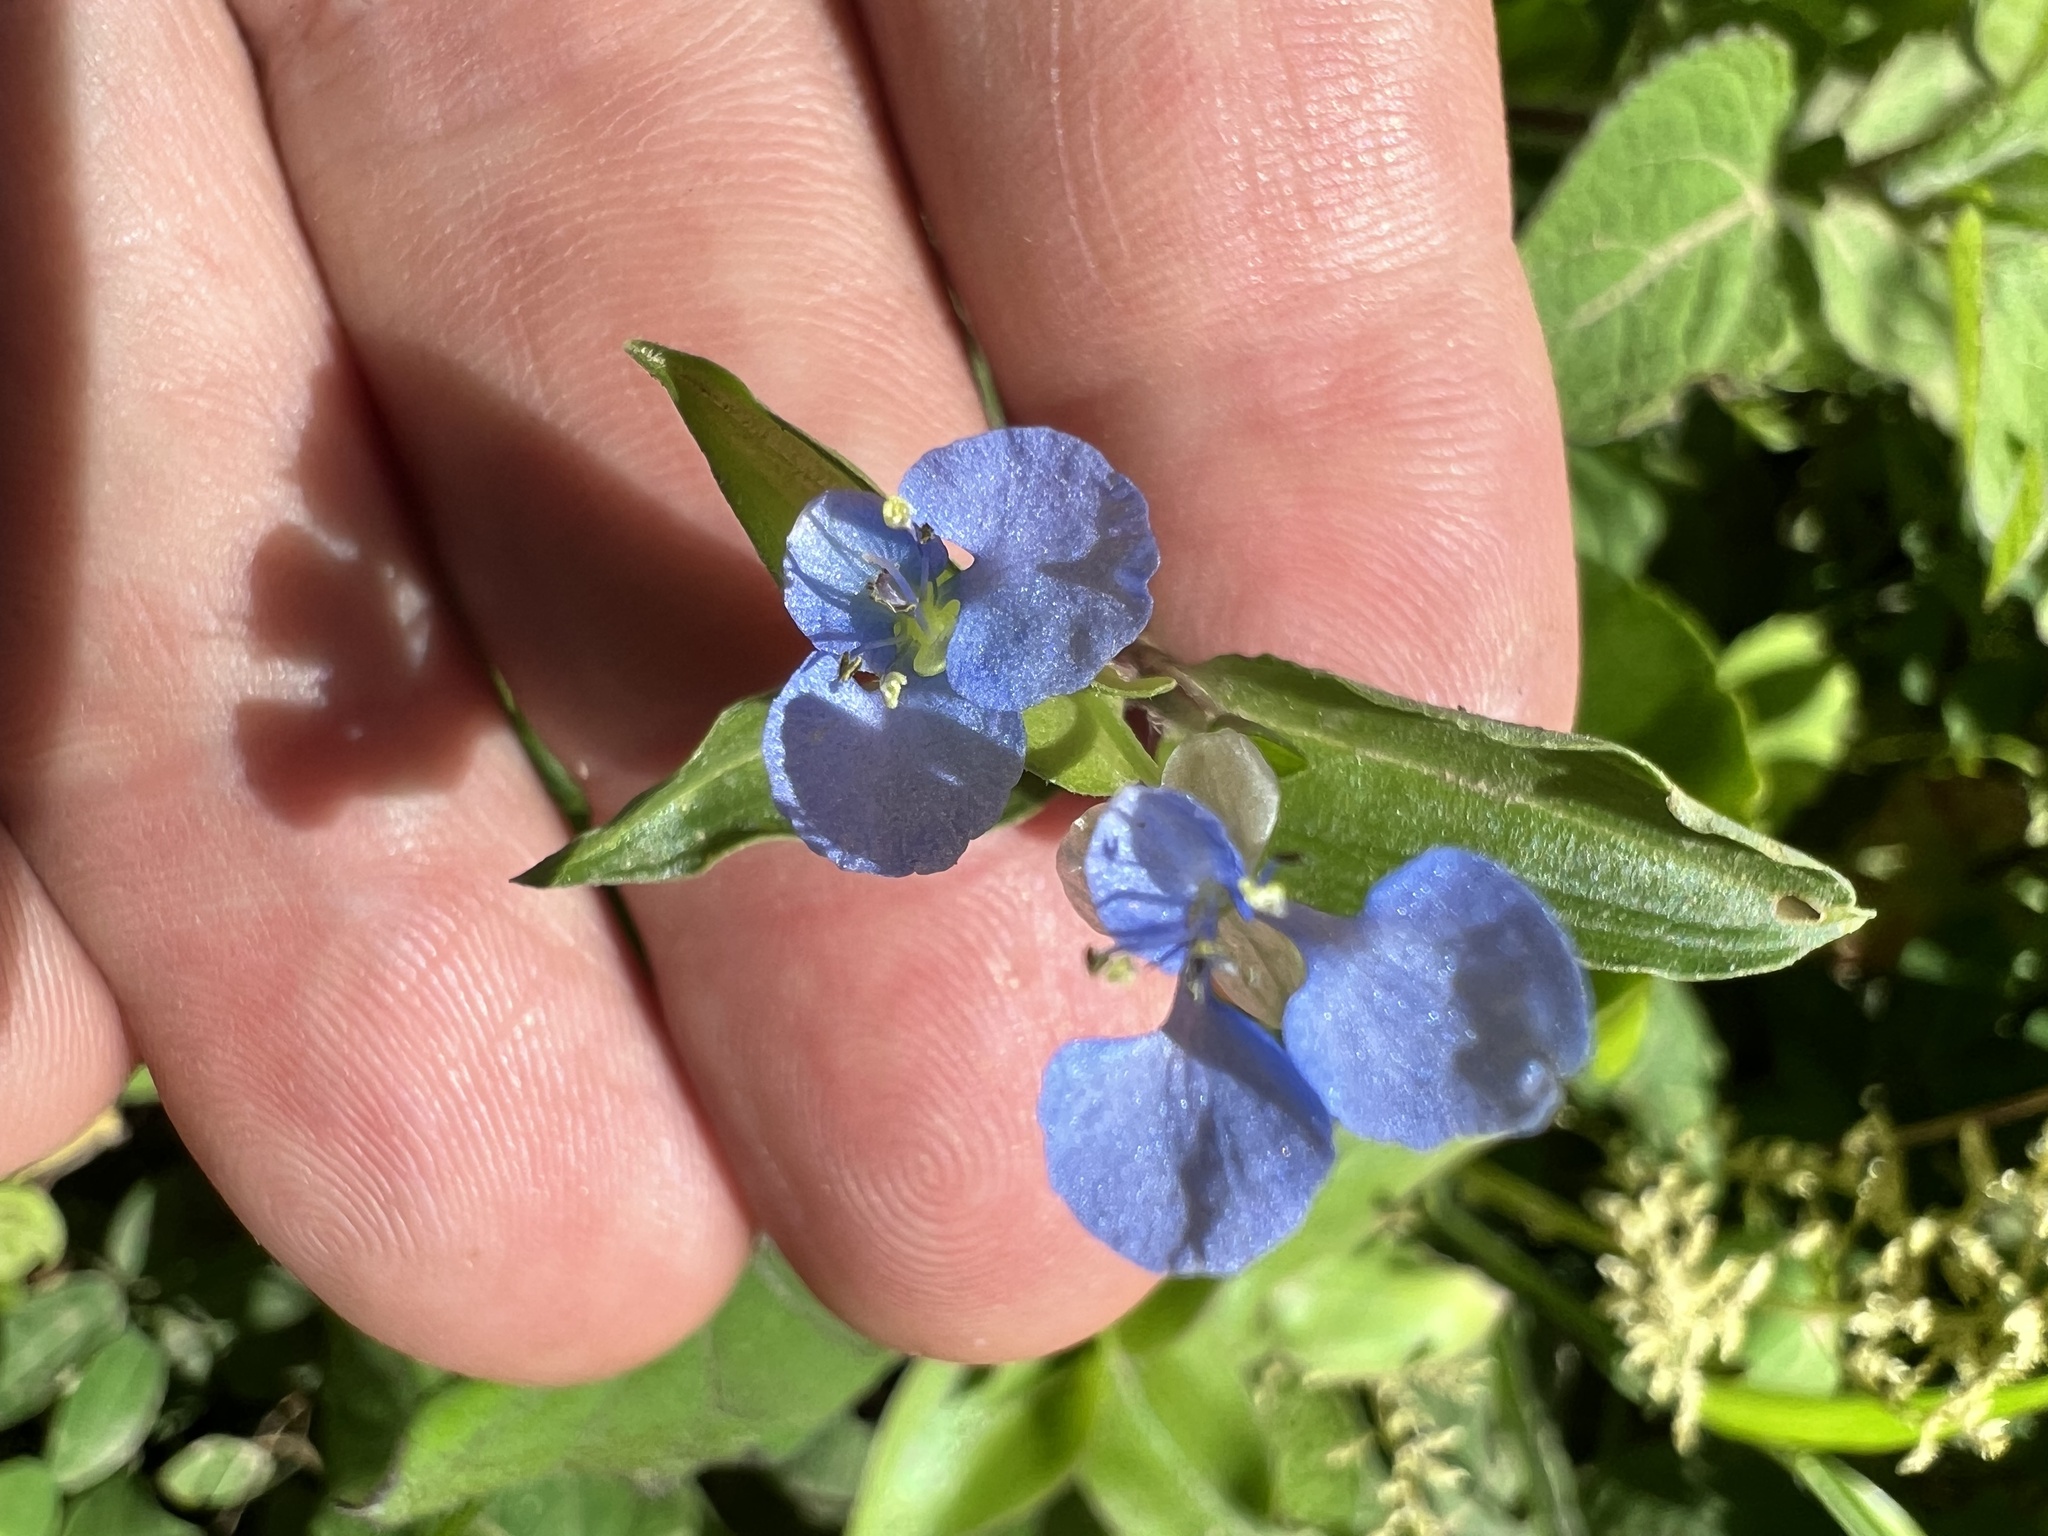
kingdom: Plantae
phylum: Tracheophyta
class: Liliopsida
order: Commelinales
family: Commelinaceae
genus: Commelina
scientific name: Commelina diffusa
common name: Climbing dayflower
